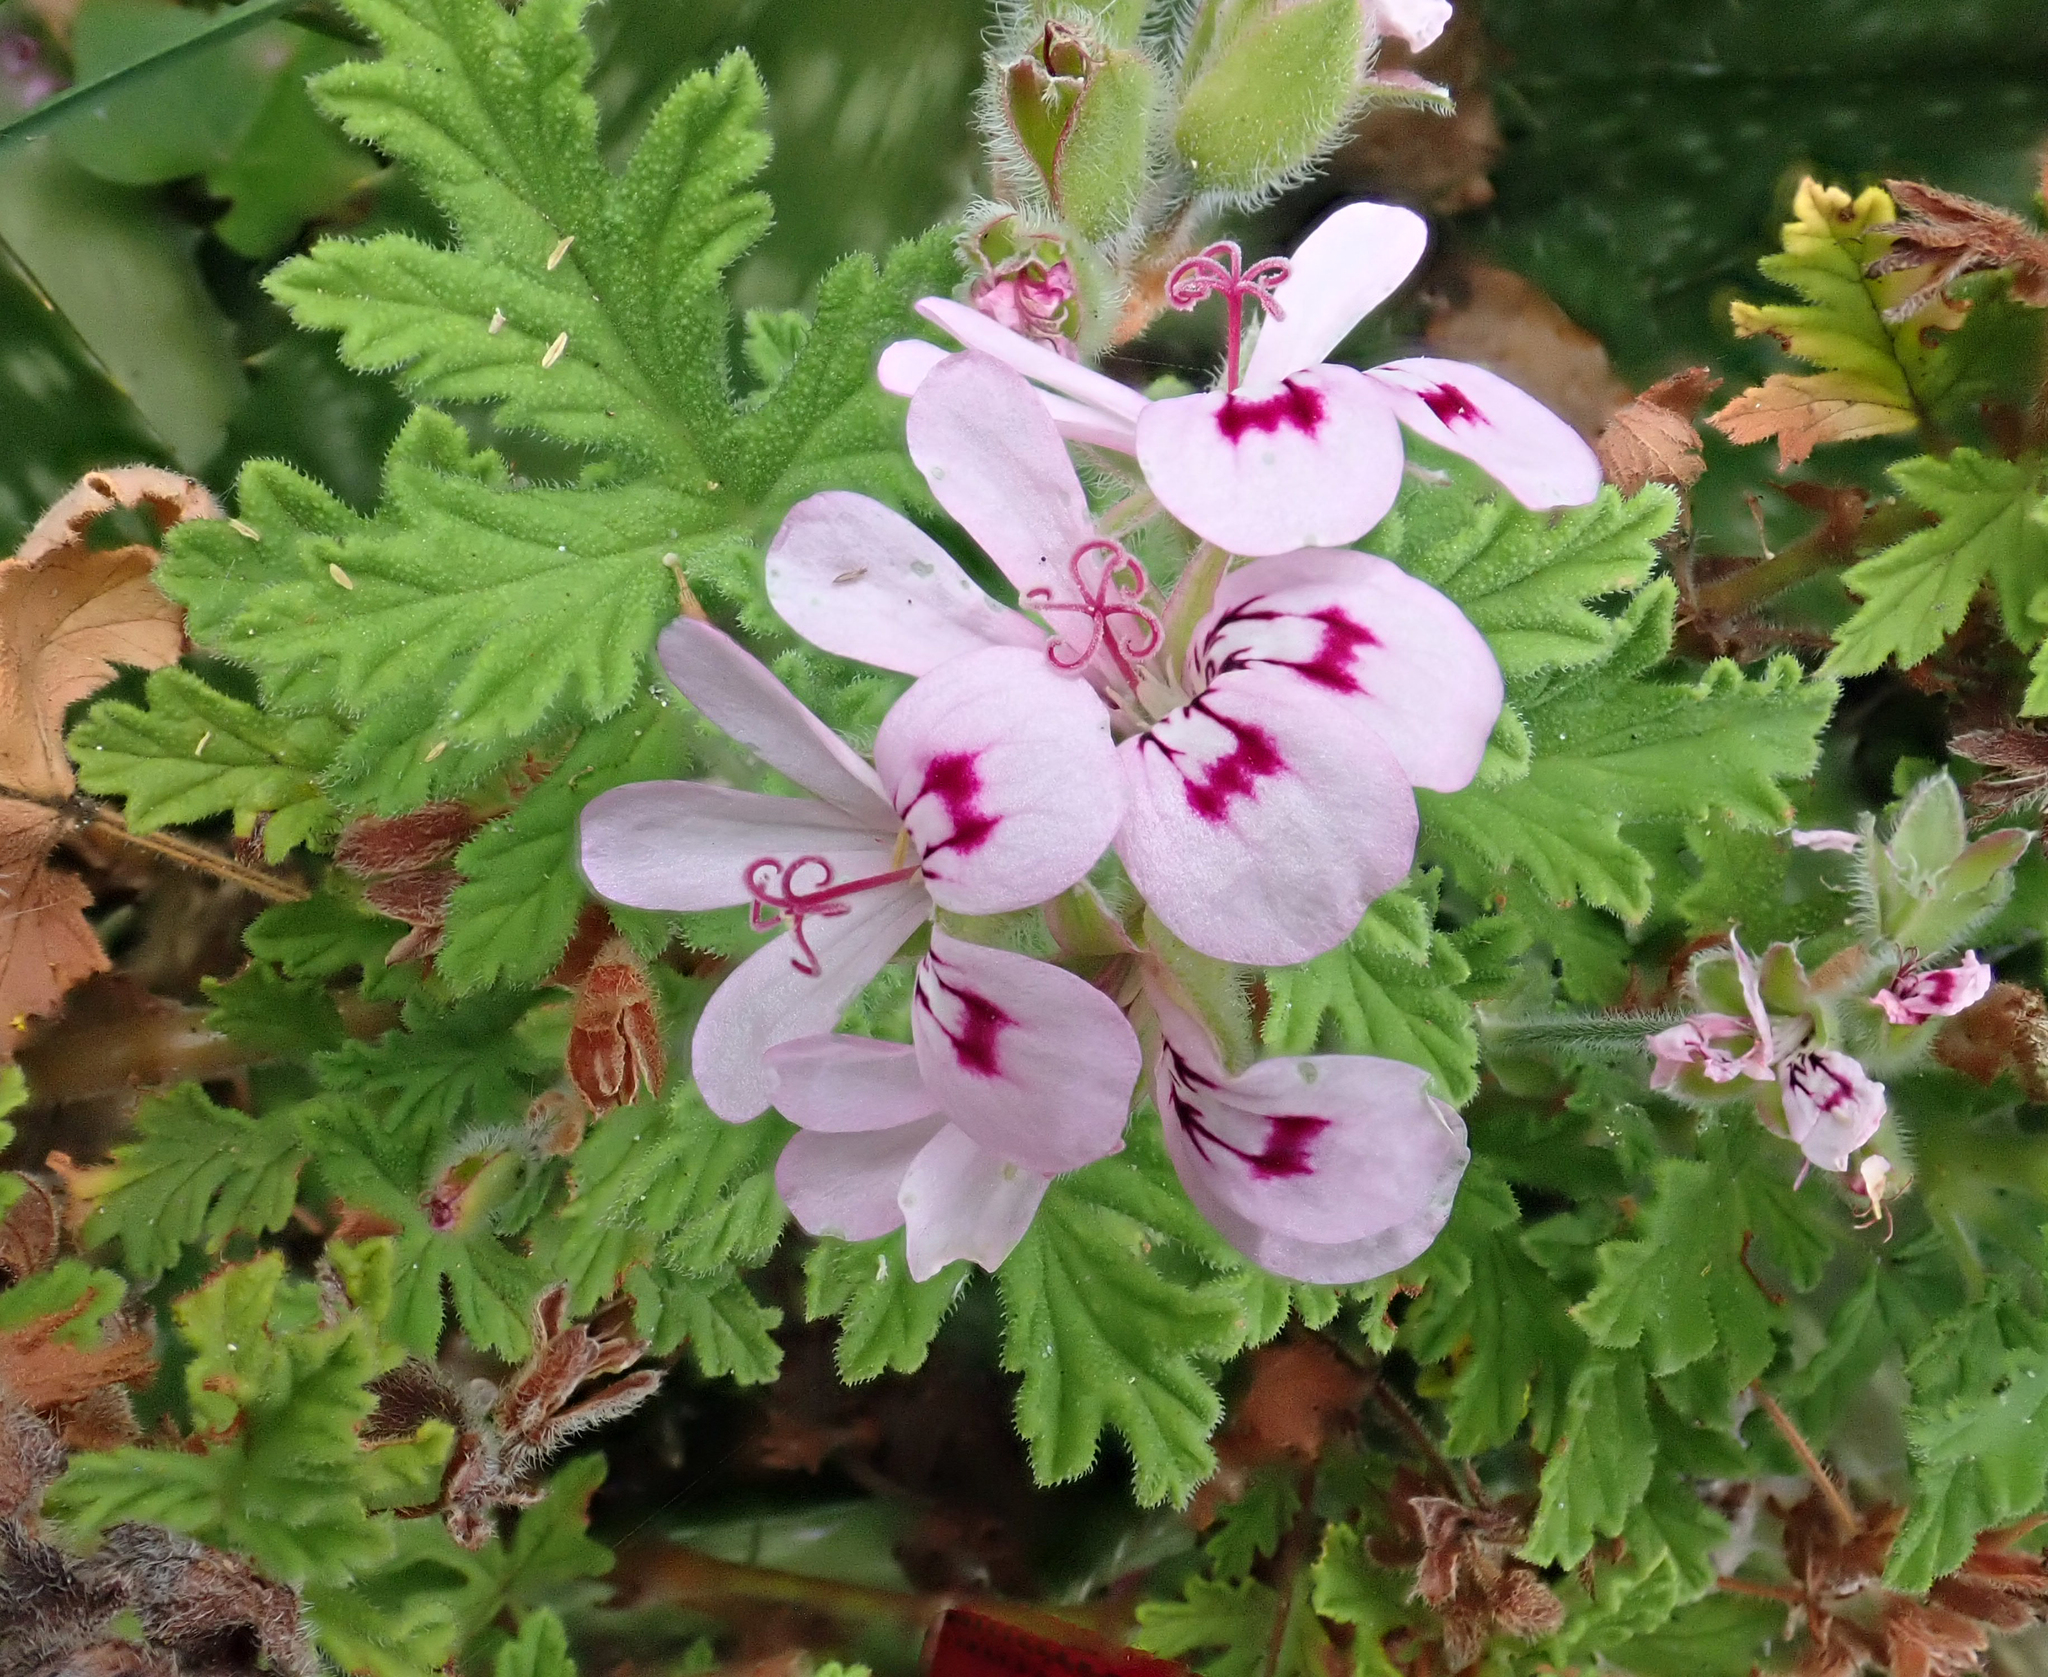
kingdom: Plantae
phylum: Tracheophyta
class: Magnoliopsida
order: Geraniales
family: Geraniaceae
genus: Pelargonium
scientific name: Pelargonium graveolens
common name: Rose-scent geranium
